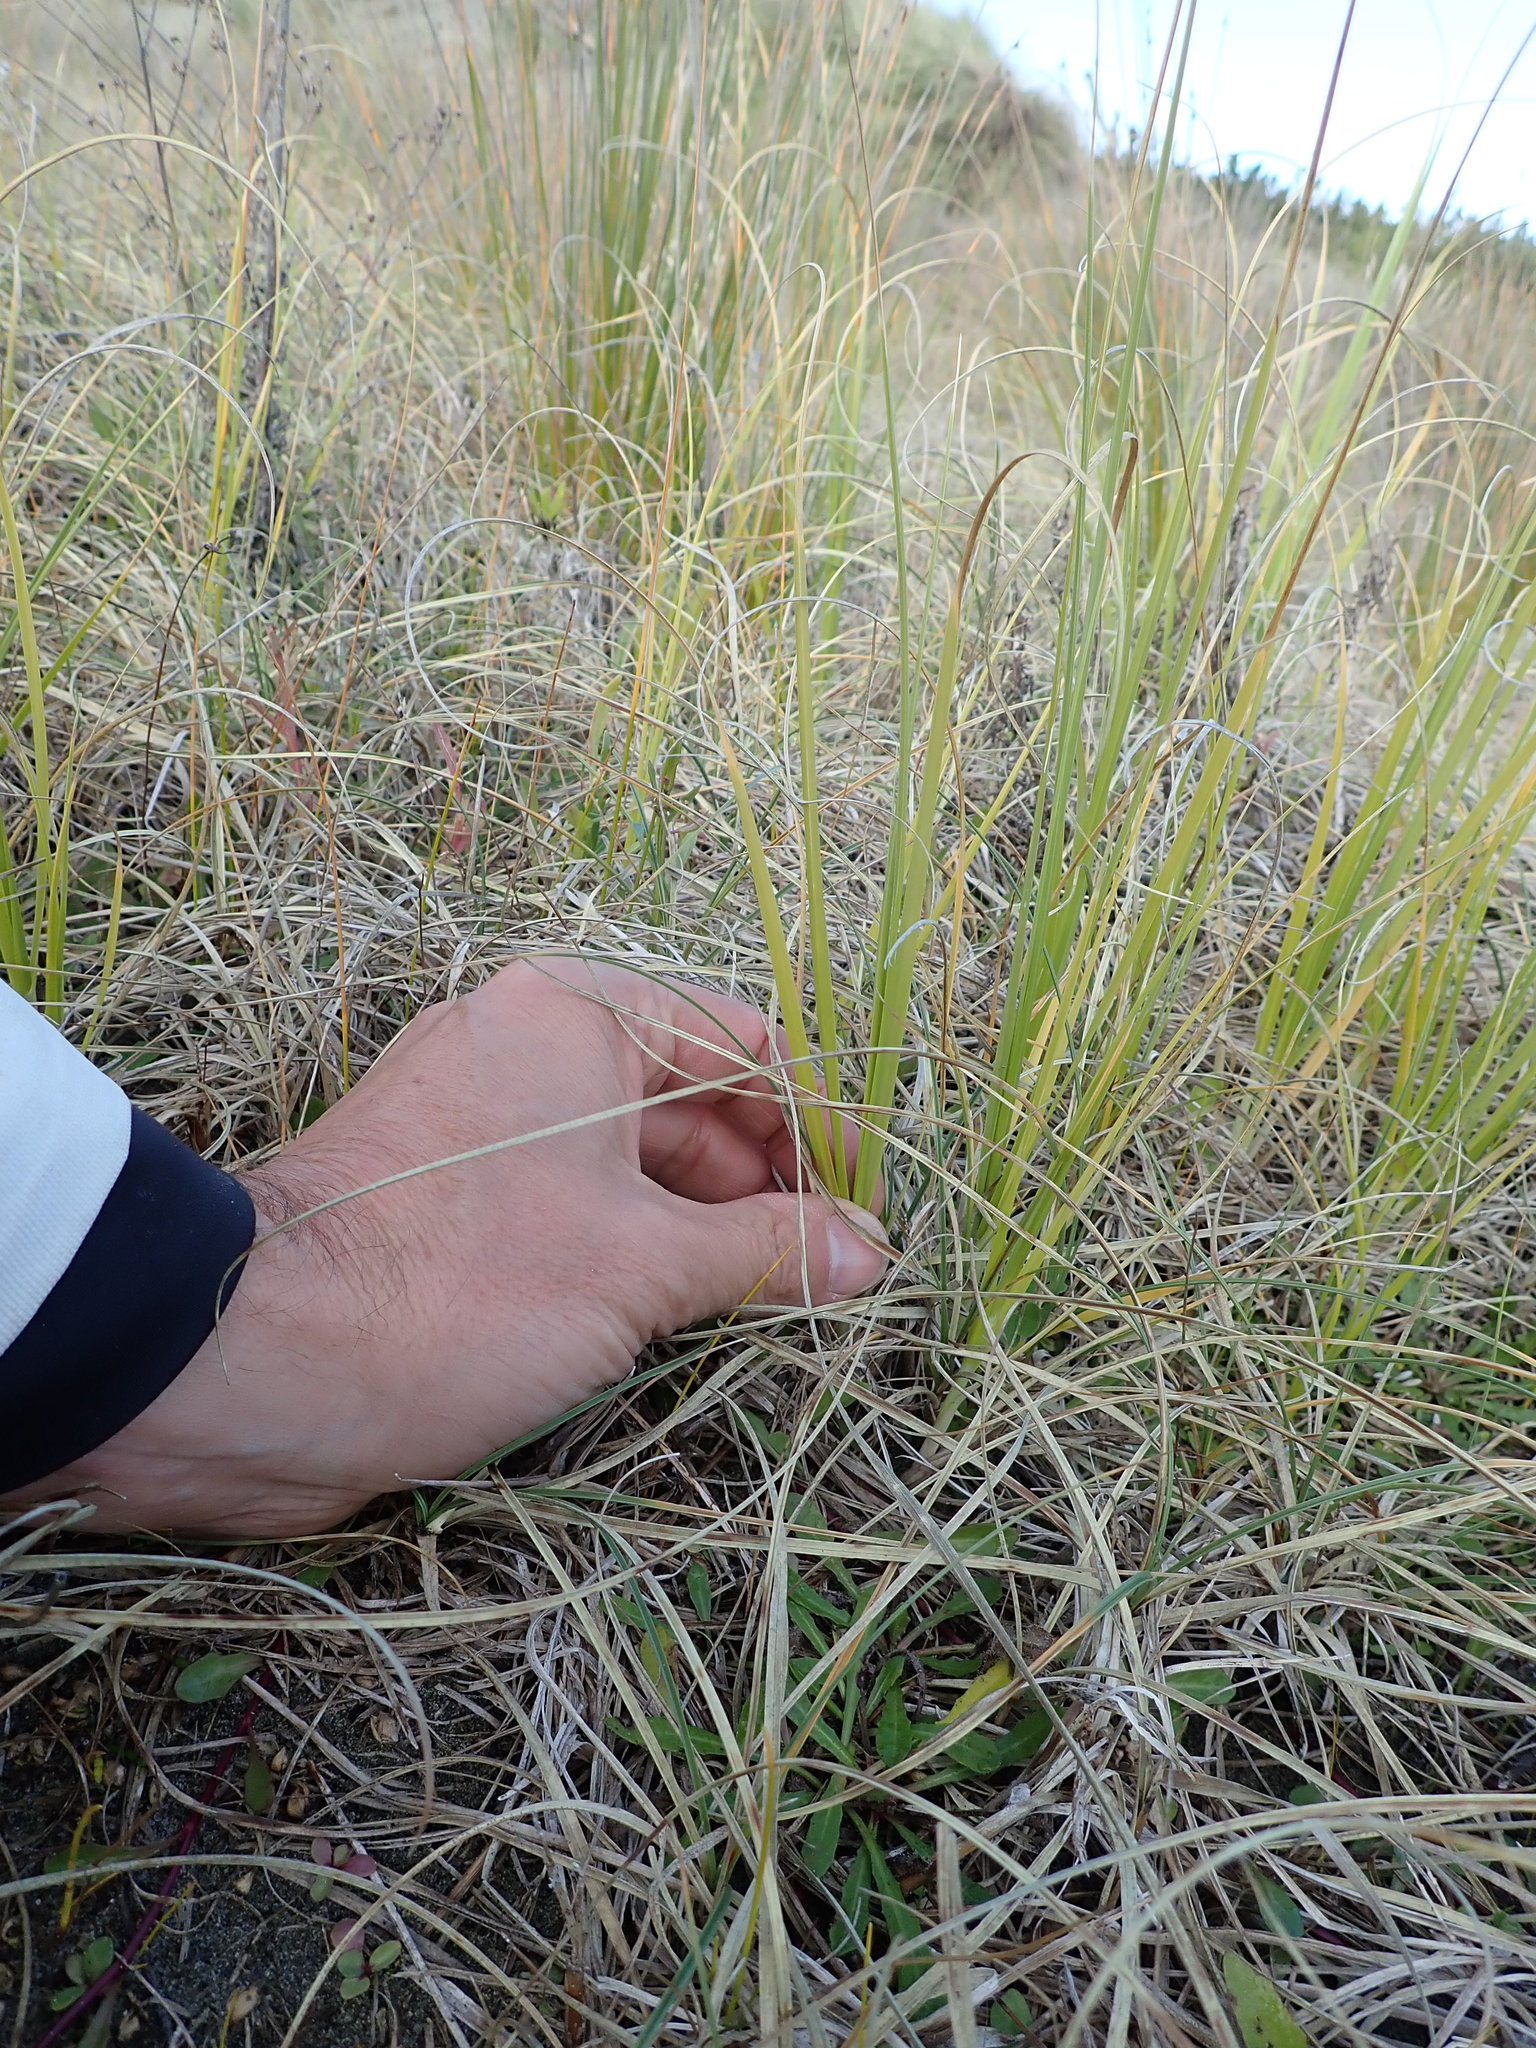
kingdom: Plantae
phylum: Tracheophyta
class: Liliopsida
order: Poales
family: Poaceae
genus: Cortaderia
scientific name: Cortaderia selloana
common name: Uruguayan pampas grass
